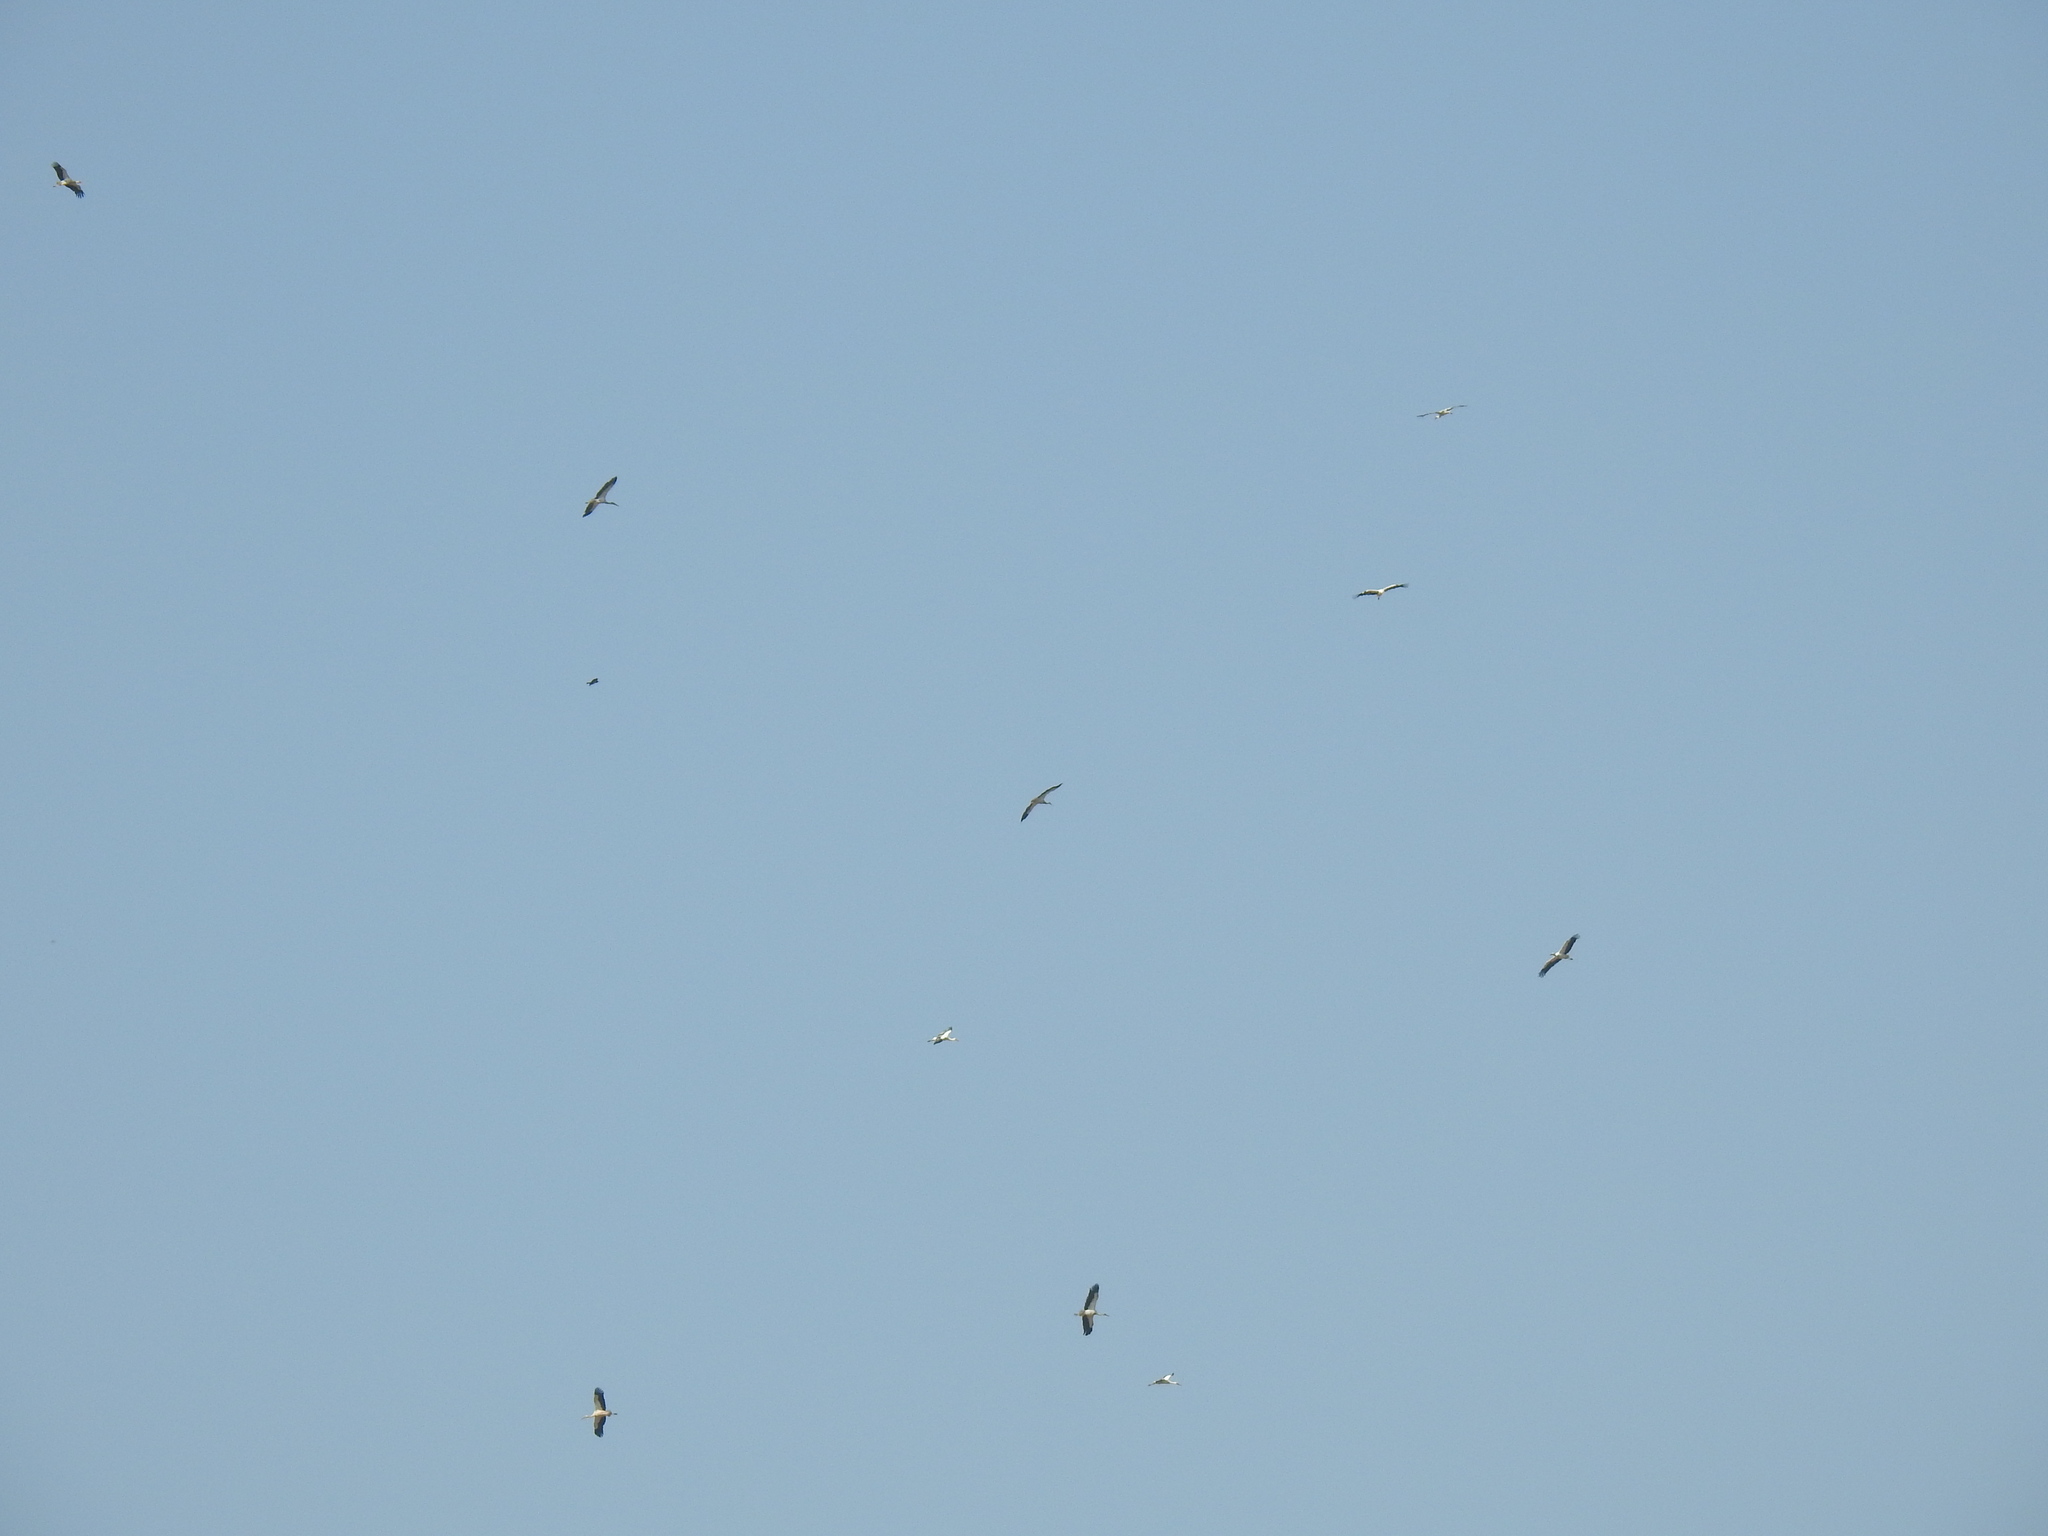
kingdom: Animalia
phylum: Chordata
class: Aves
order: Ciconiiformes
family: Ciconiidae
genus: Ciconia
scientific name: Ciconia ciconia
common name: White stork
